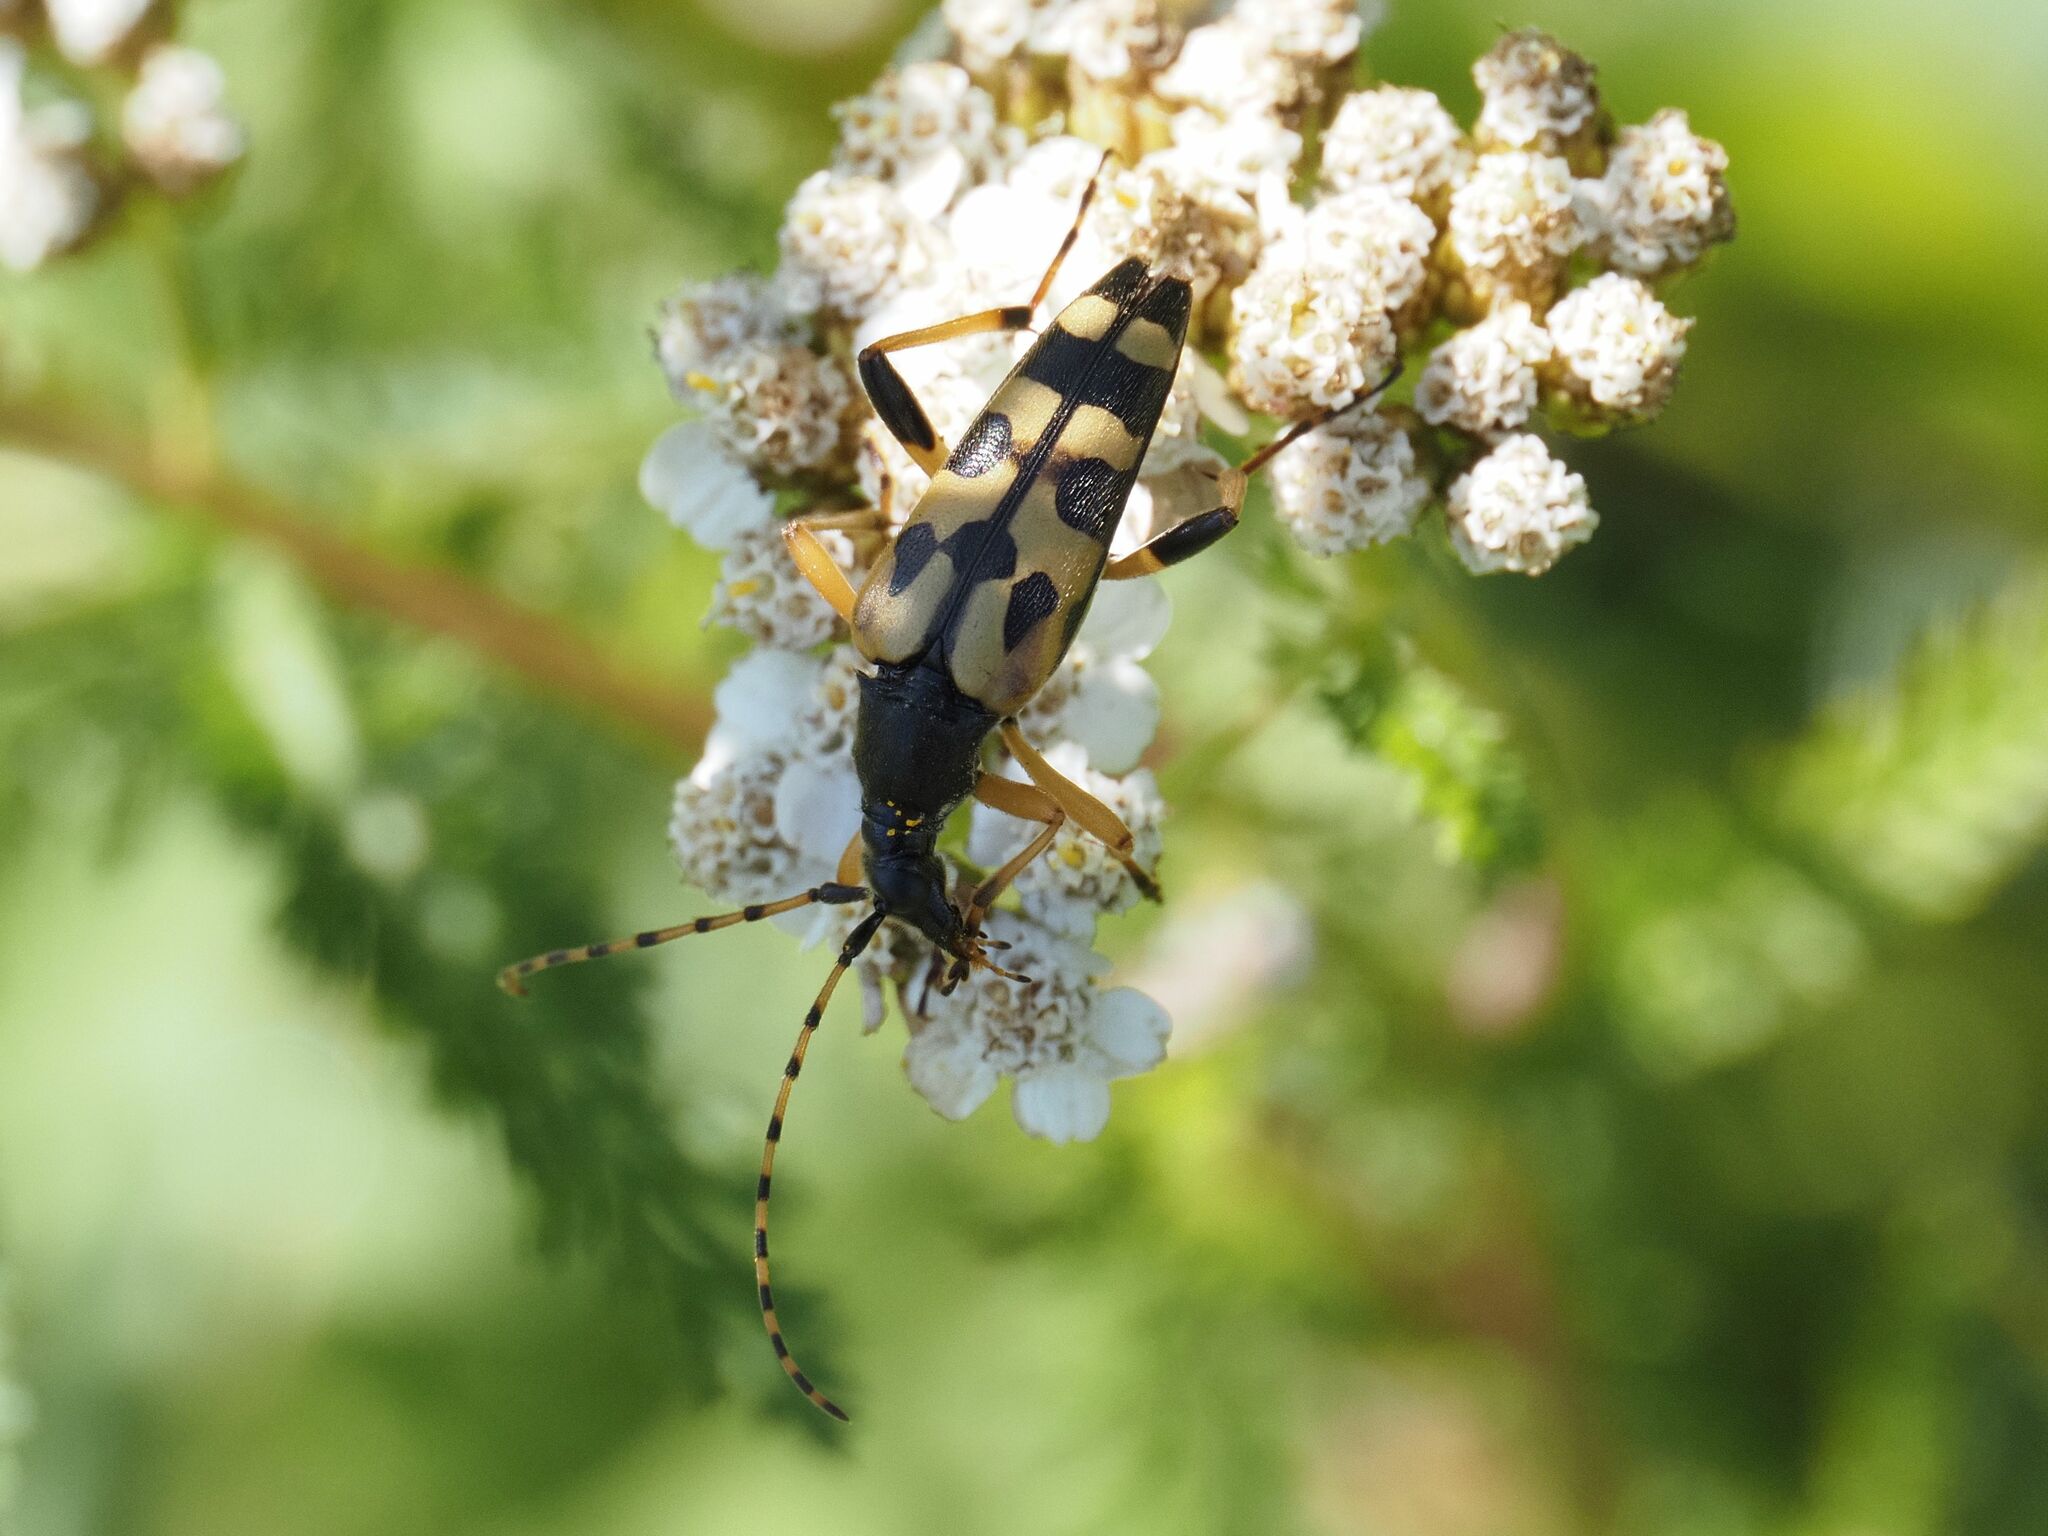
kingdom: Animalia
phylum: Arthropoda
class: Insecta
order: Coleoptera
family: Cerambycidae
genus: Rutpela
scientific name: Rutpela maculata
